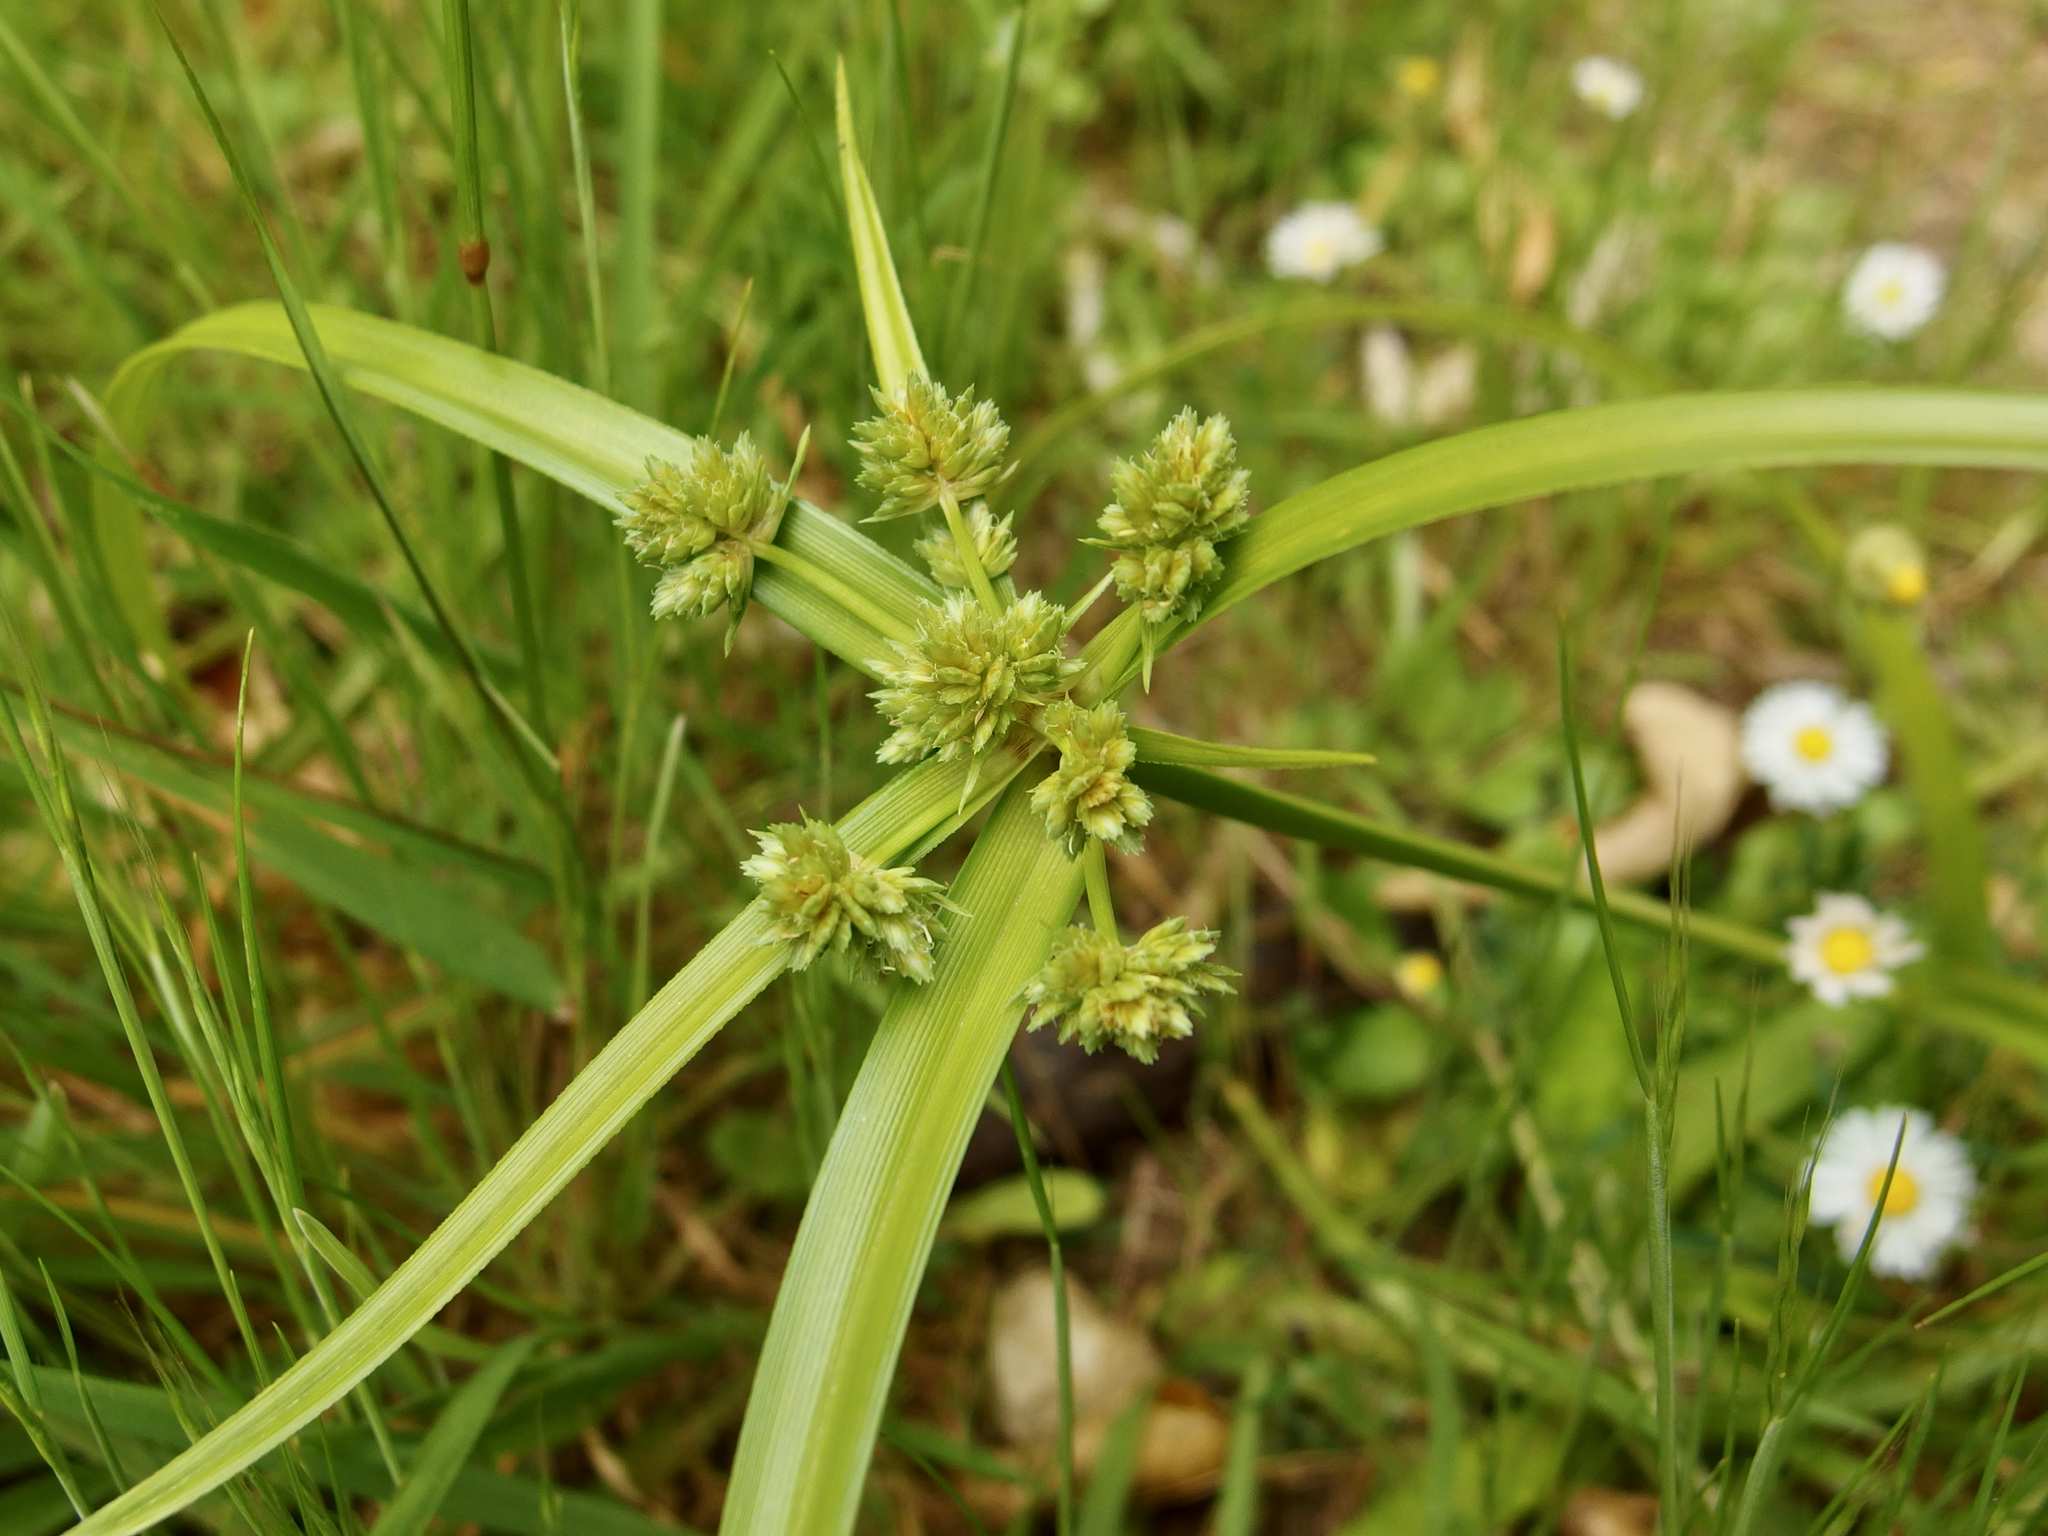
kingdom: Plantae
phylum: Tracheophyta
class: Liliopsida
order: Poales
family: Cyperaceae
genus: Cyperus
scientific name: Cyperus eragrostis
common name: Tall flatsedge
